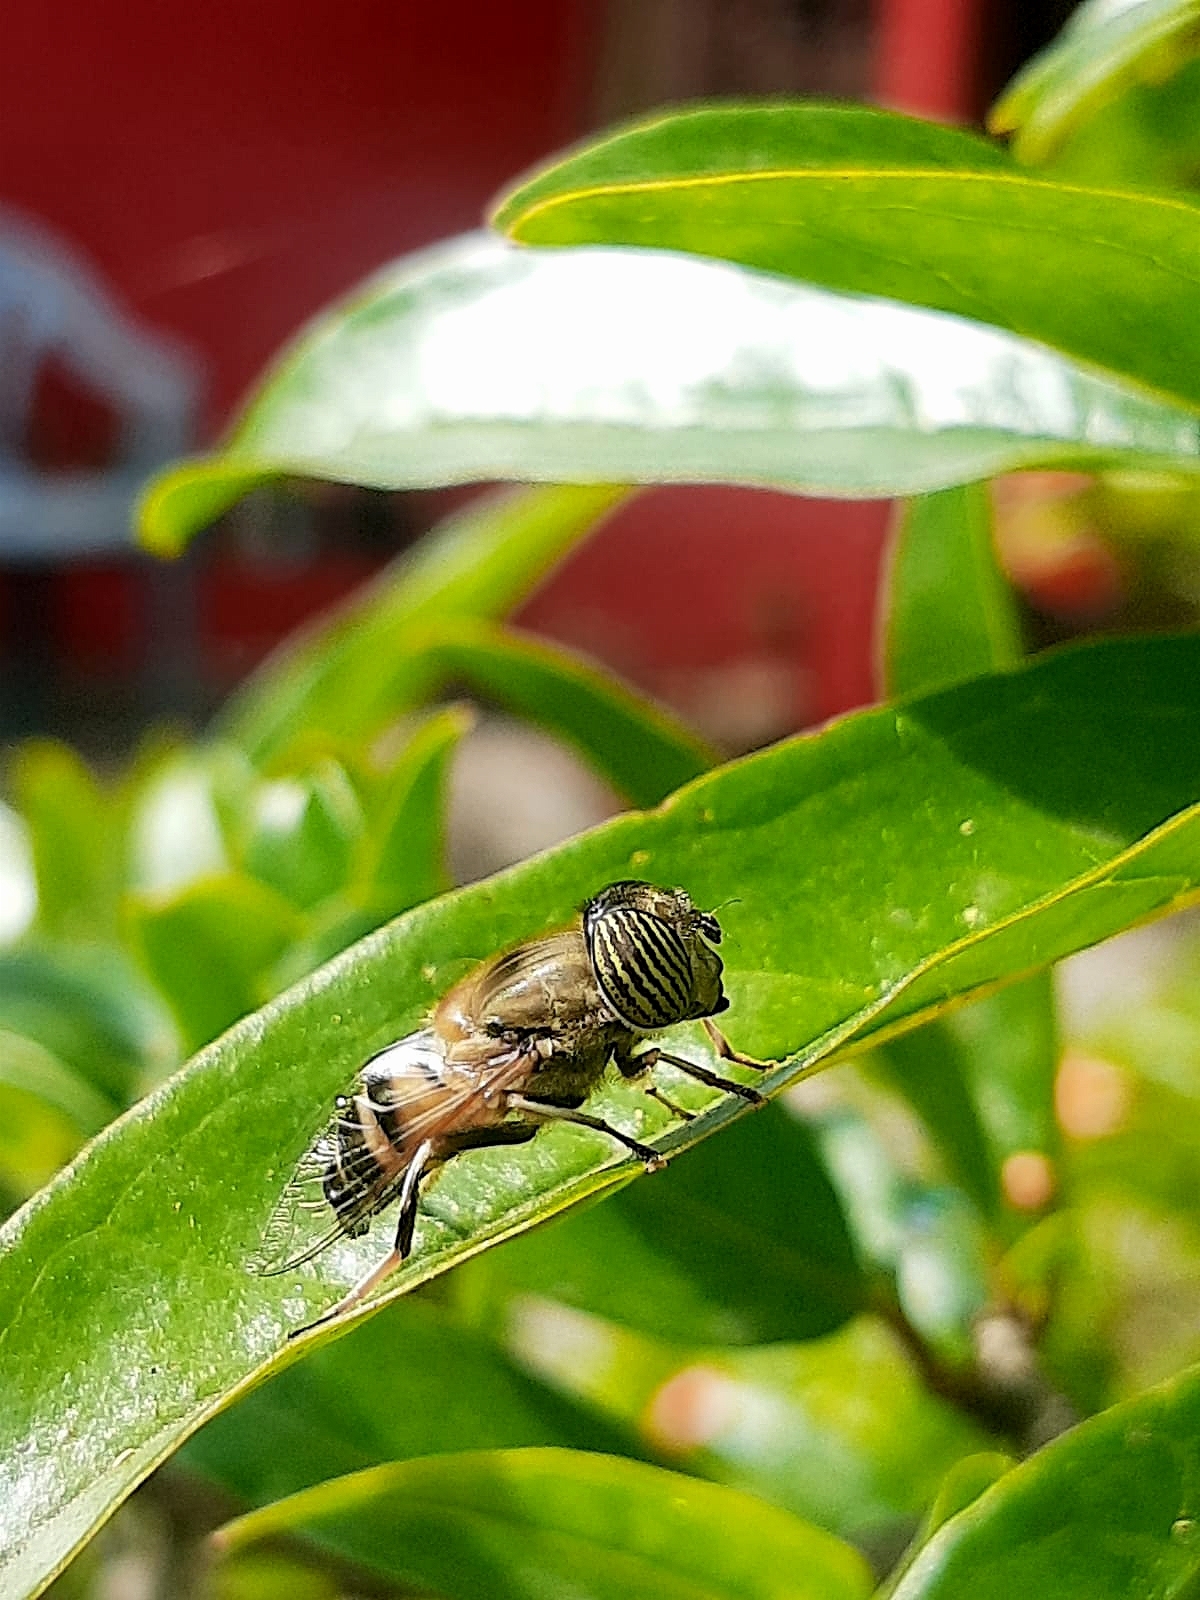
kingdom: Animalia
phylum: Arthropoda
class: Insecta
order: Diptera
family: Syrphidae
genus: Eristalinus
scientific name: Eristalinus taeniops
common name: Syrphid fly
